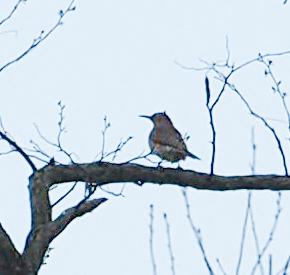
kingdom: Animalia
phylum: Chordata
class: Aves
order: Piciformes
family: Picidae
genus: Colaptes
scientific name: Colaptes auratus
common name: Northern flicker
